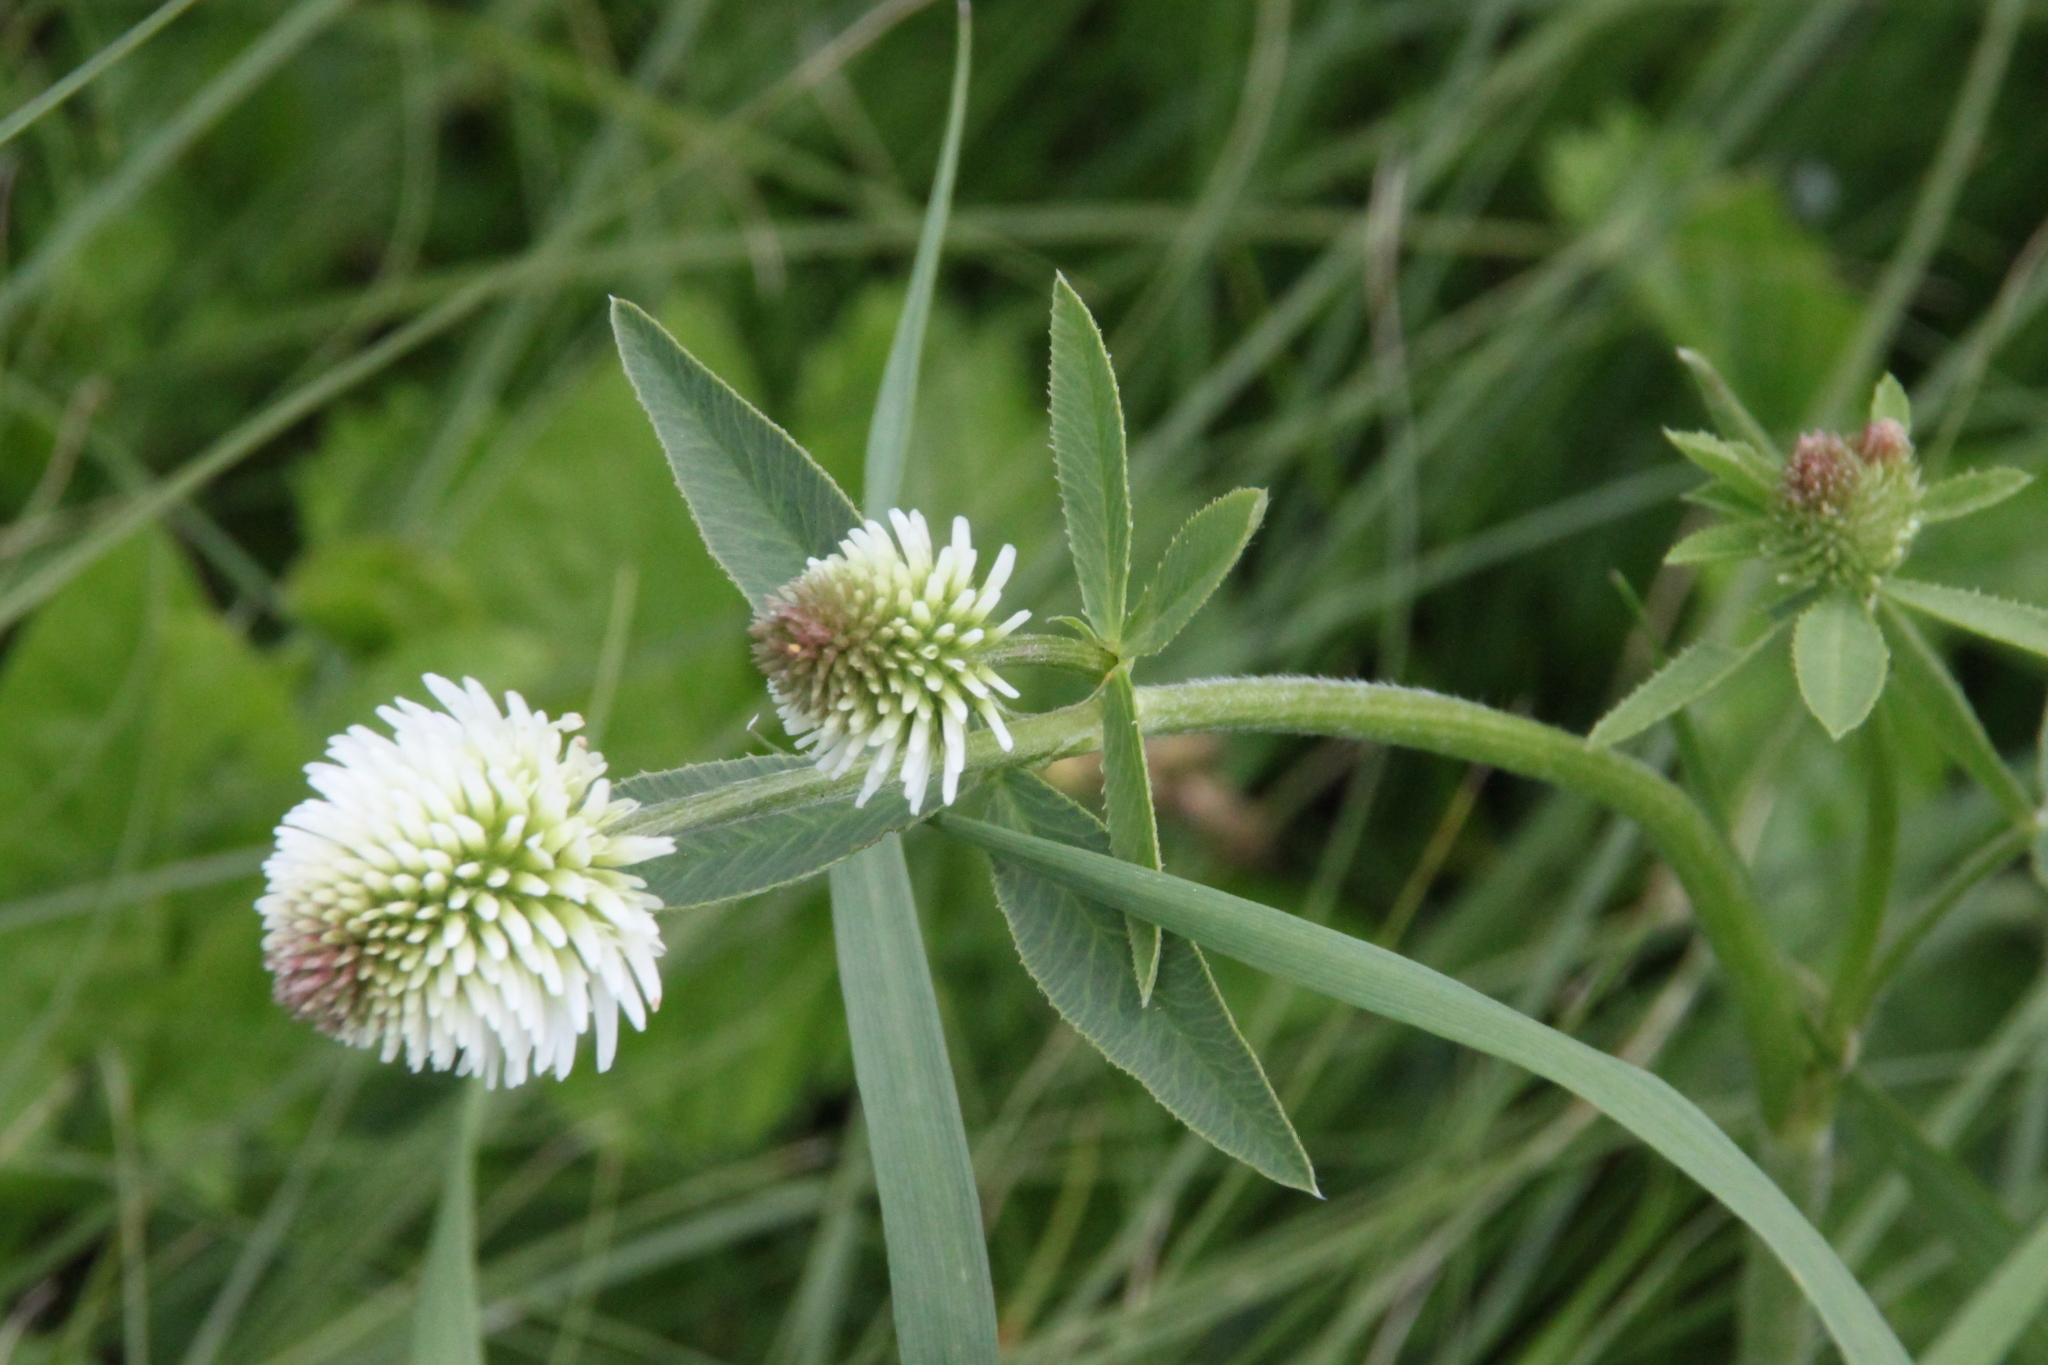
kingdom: Plantae
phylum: Tracheophyta
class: Magnoliopsida
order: Fabales
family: Fabaceae
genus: Trifolium
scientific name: Trifolium montanum
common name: Mountain clover
